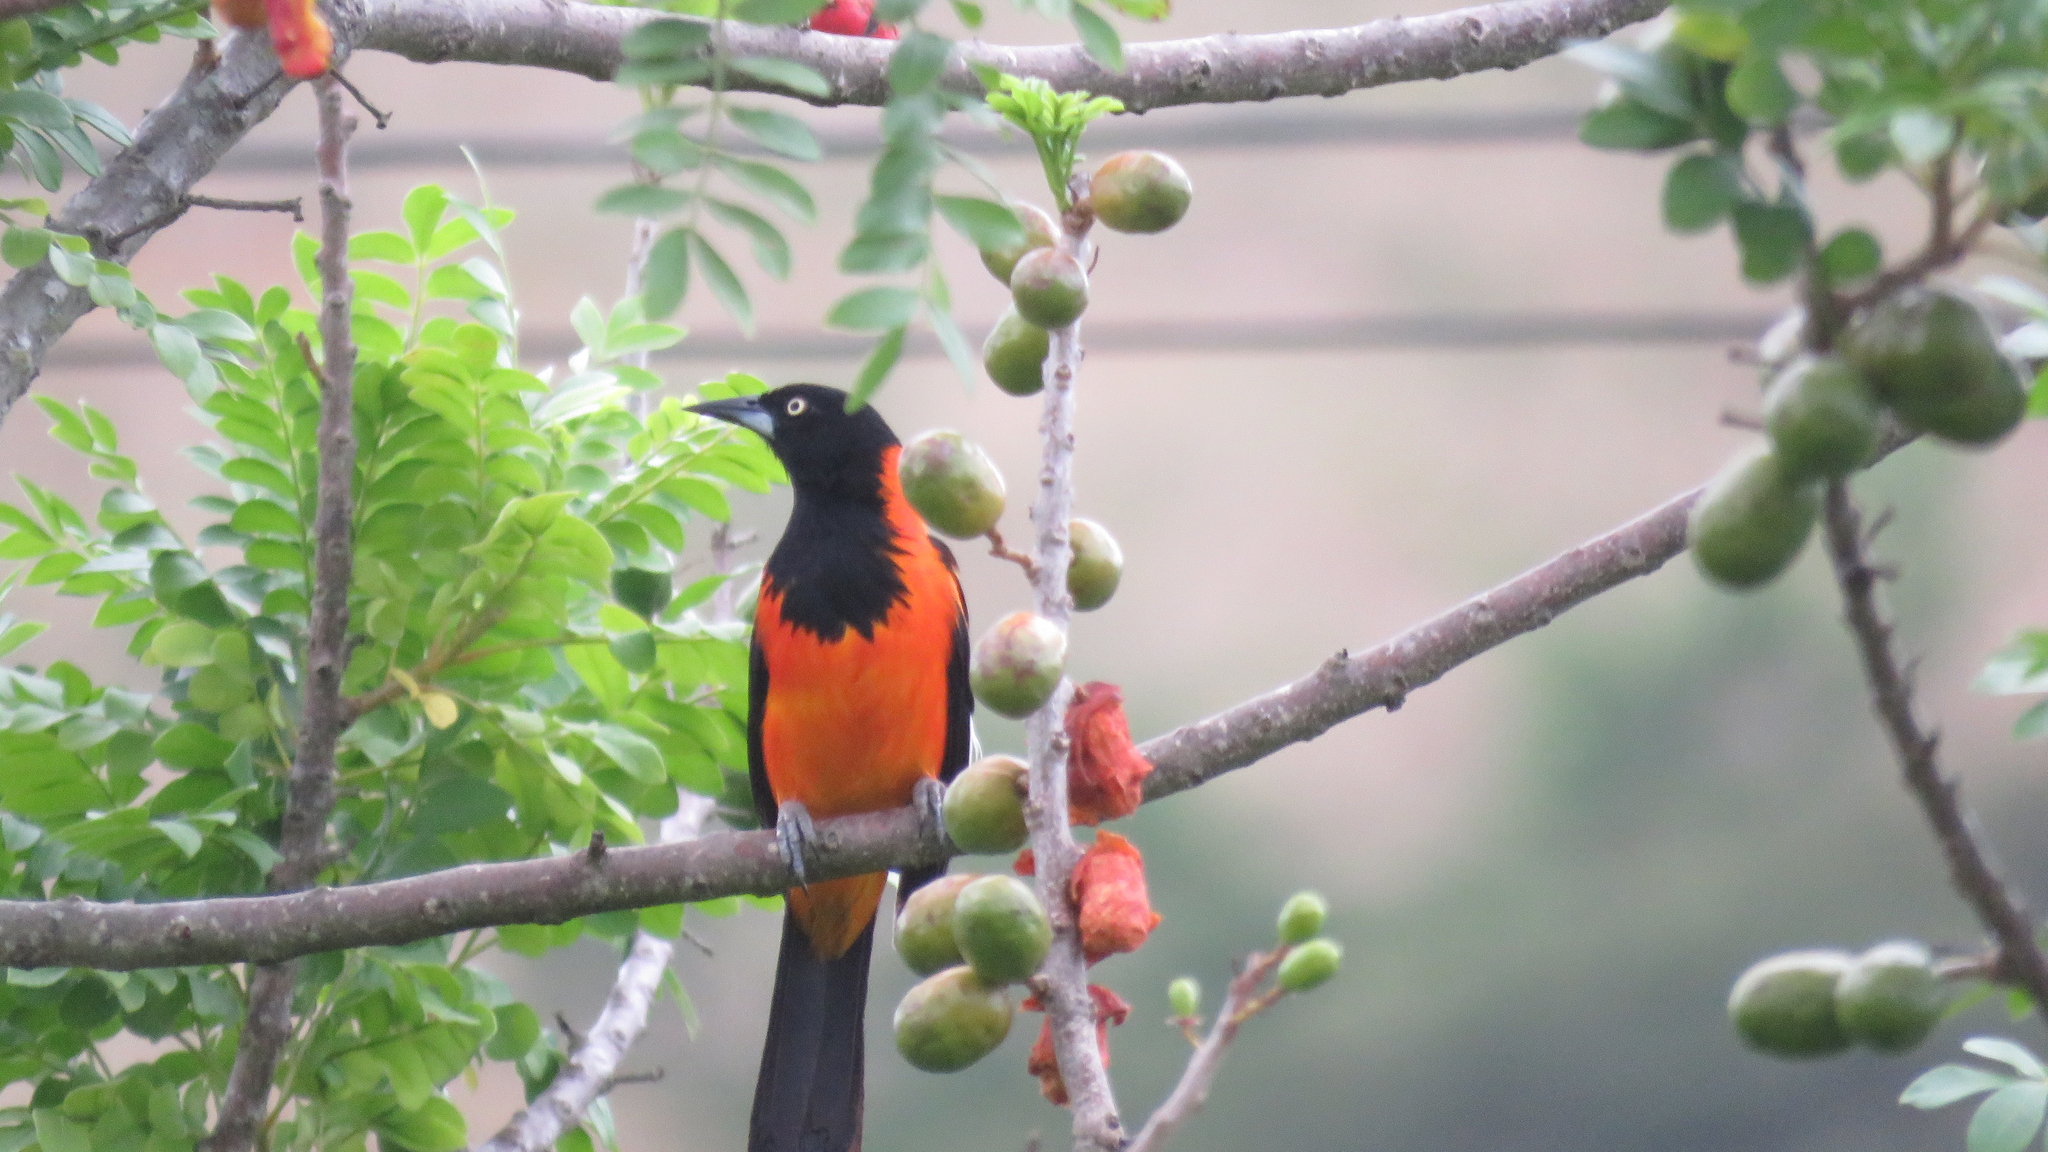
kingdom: Animalia
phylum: Chordata
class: Aves
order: Passeriformes
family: Icteridae
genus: Icterus
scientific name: Icterus icterus
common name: Venezuelan troupial
